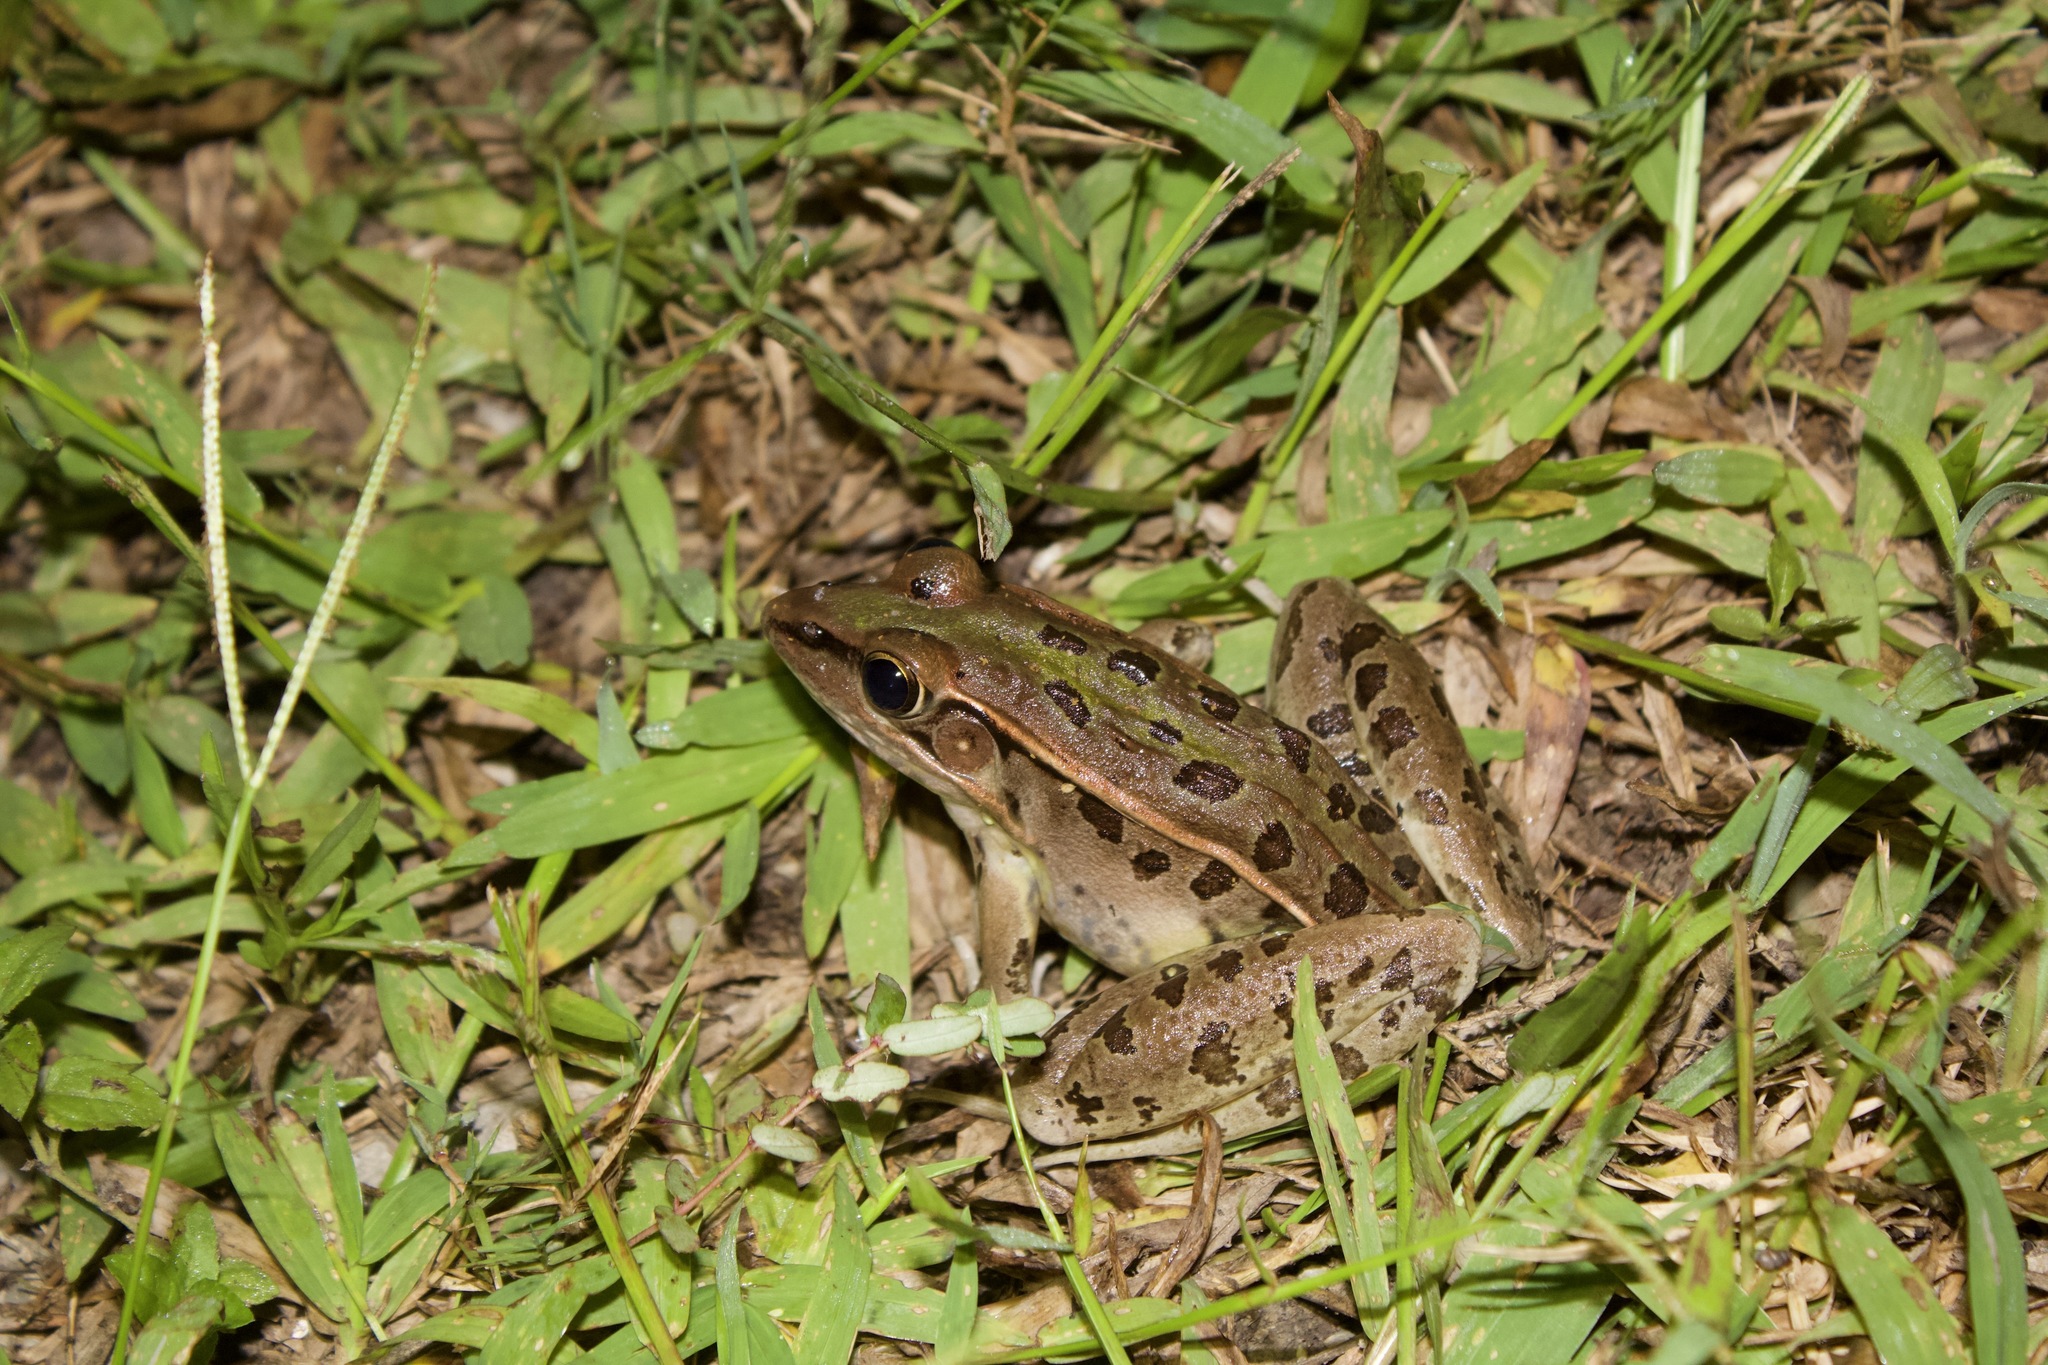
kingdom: Animalia
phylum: Chordata
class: Amphibia
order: Anura
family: Ranidae
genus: Lithobates
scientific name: Lithobates sphenocephalus
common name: Southern leopard frog
